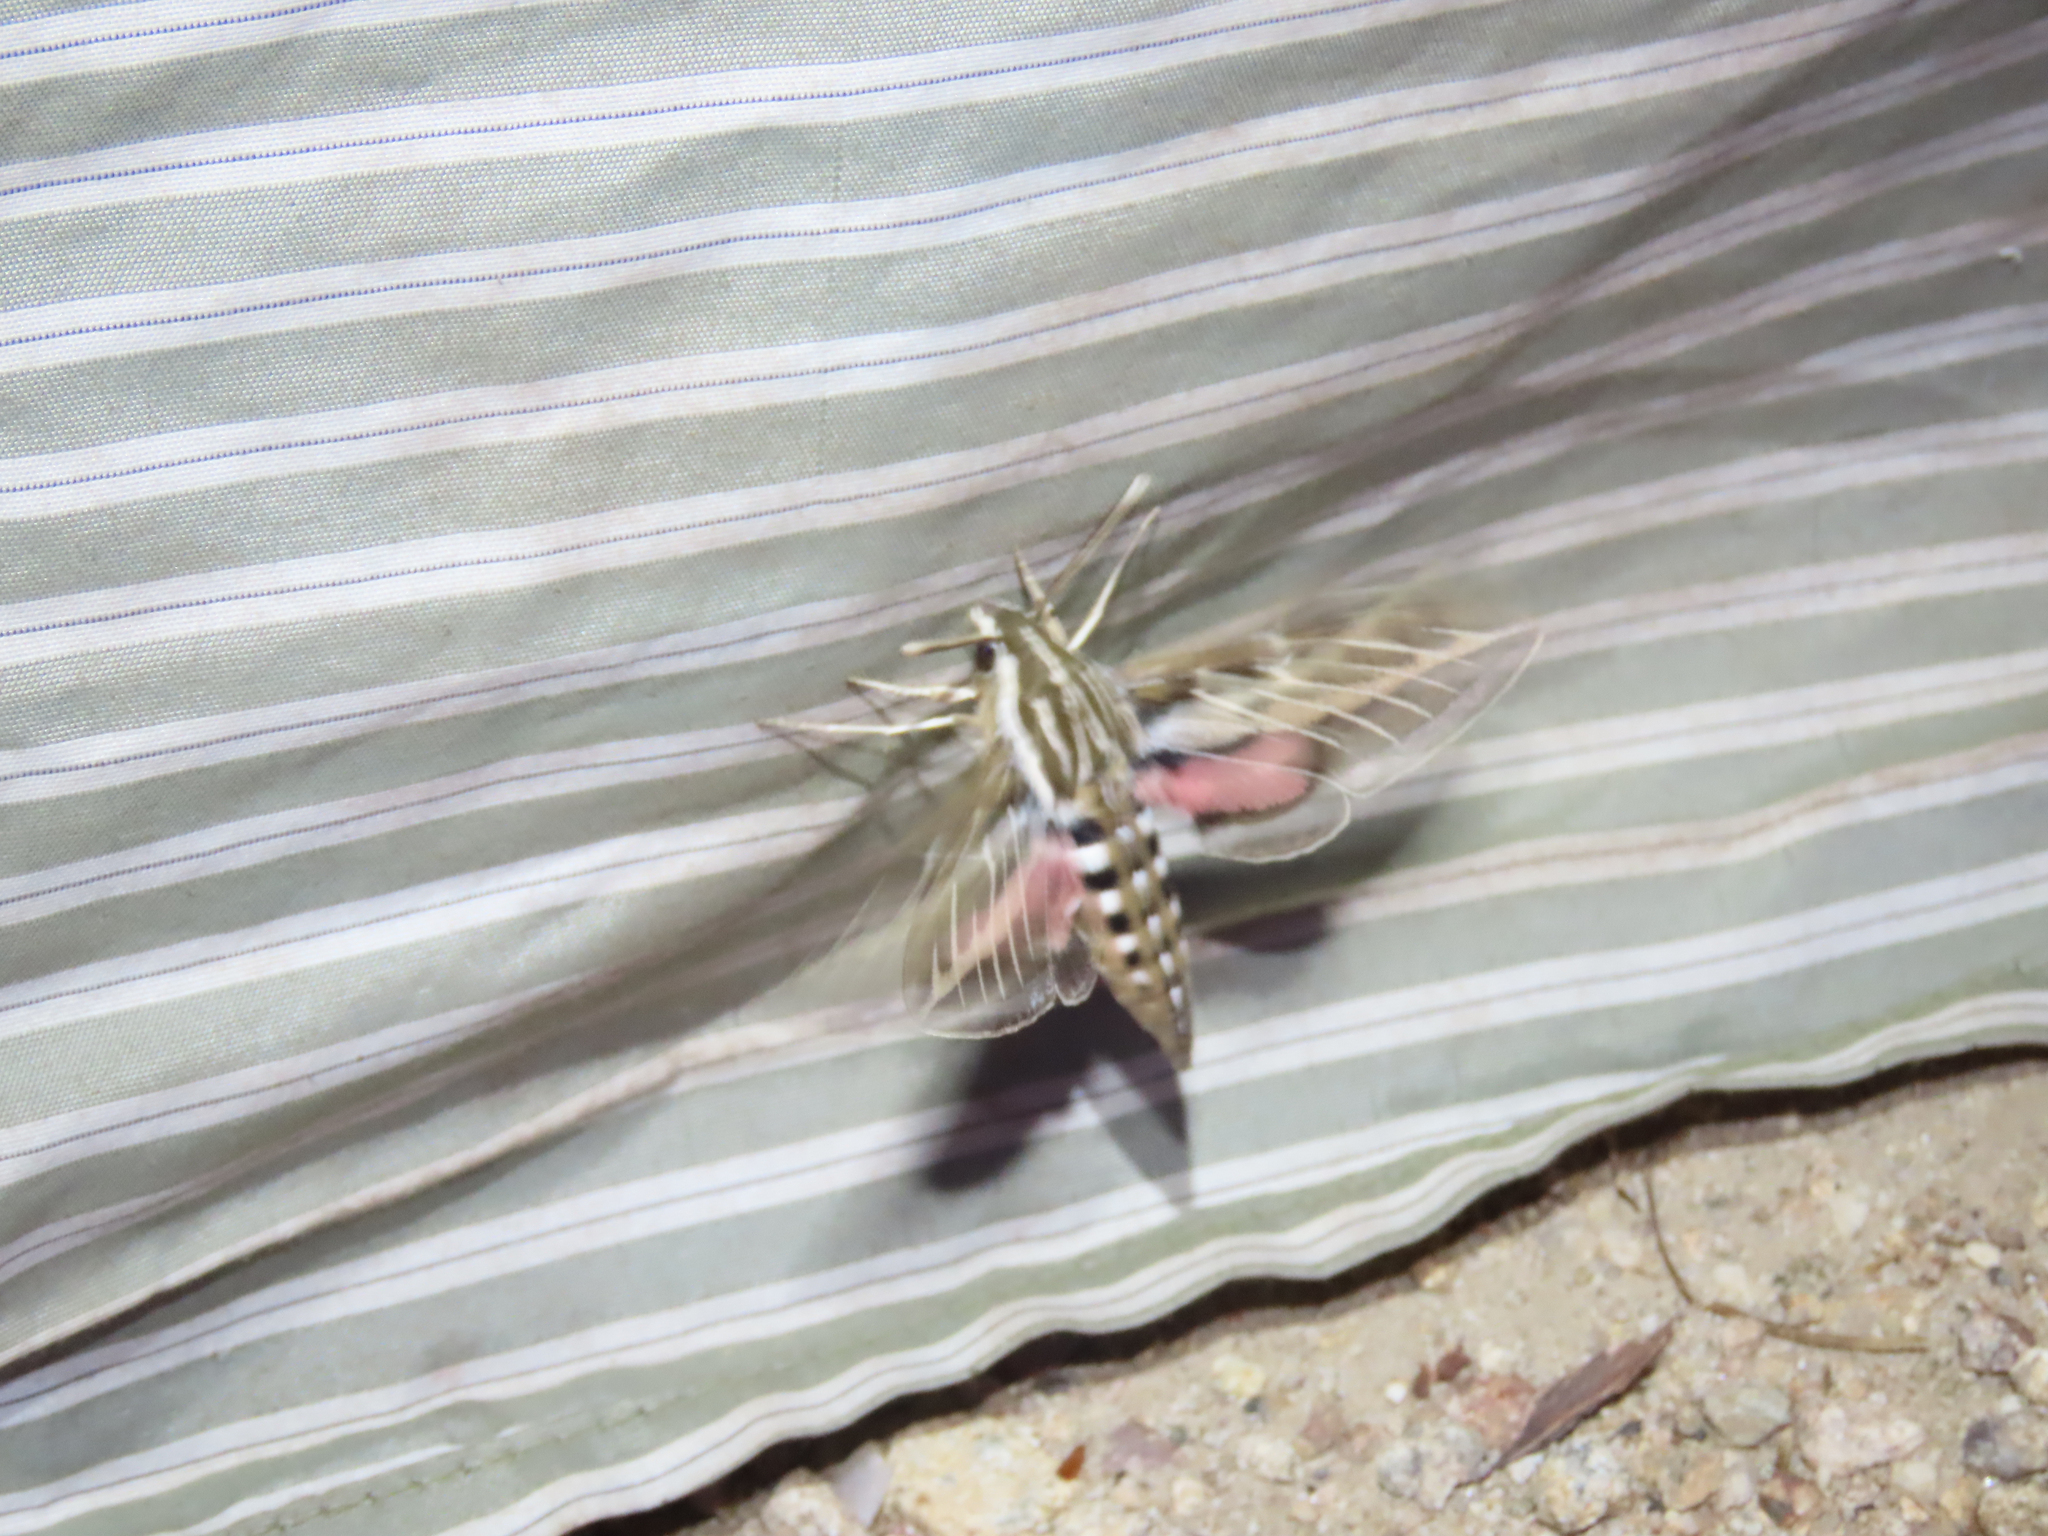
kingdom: Animalia
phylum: Arthropoda
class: Insecta
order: Lepidoptera
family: Sphingidae
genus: Hyles
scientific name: Hyles lineata
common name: White-lined sphinx
